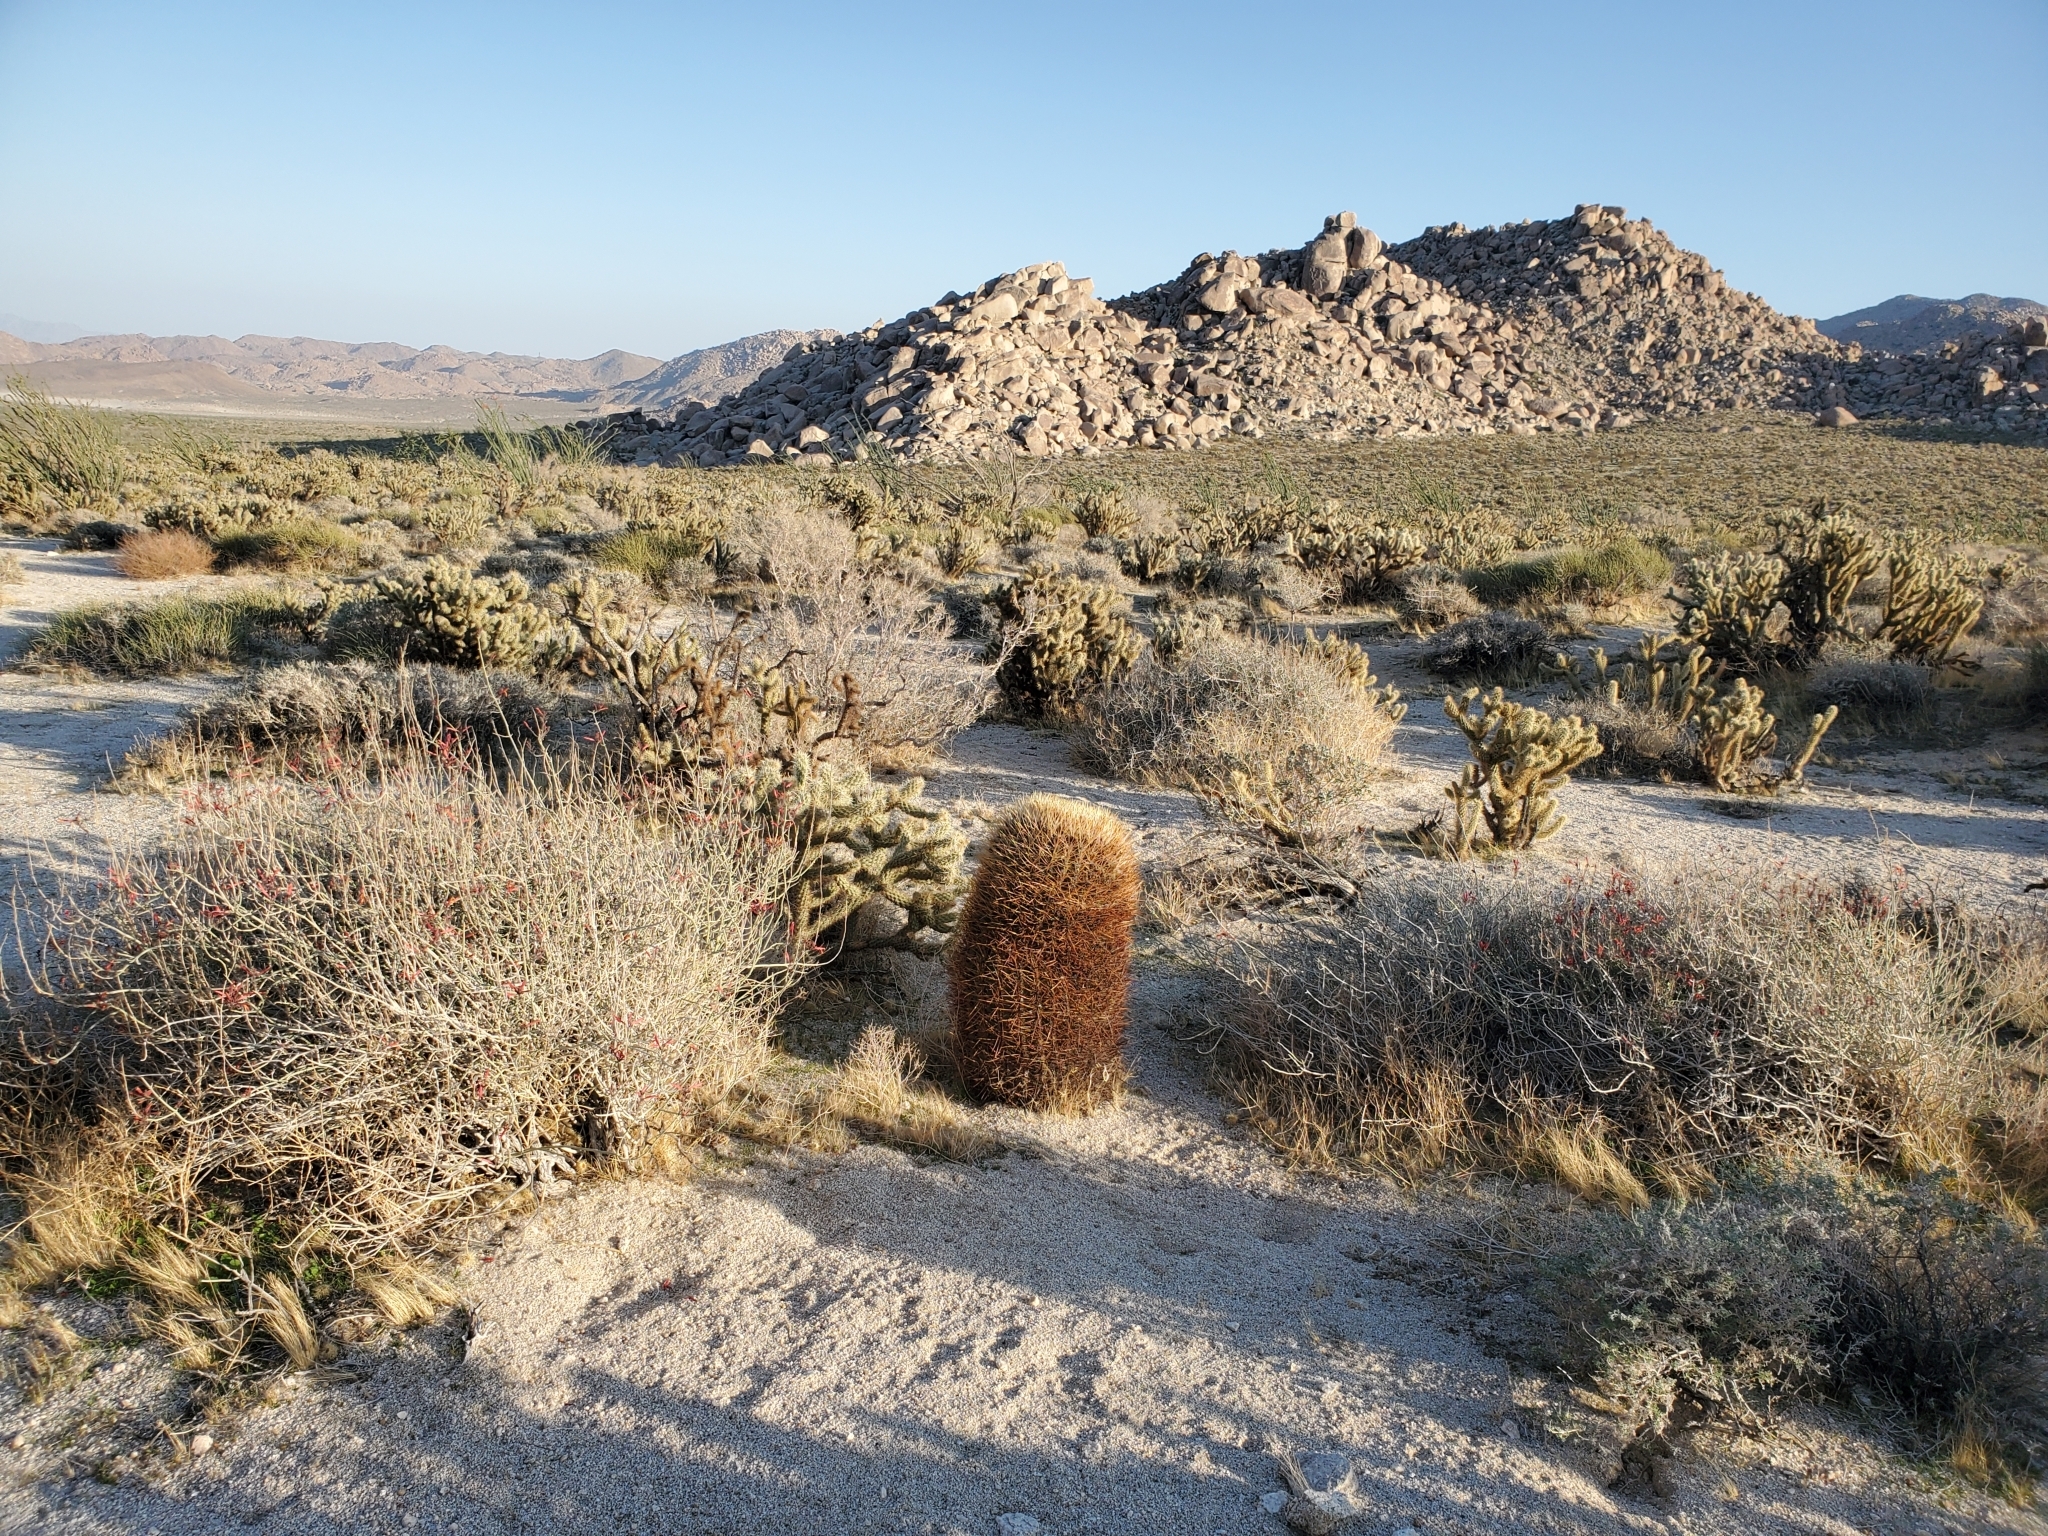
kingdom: Plantae
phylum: Tracheophyta
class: Magnoliopsida
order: Caryophyllales
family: Cactaceae
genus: Ferocactus
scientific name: Ferocactus cylindraceus
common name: California barrel cactus
